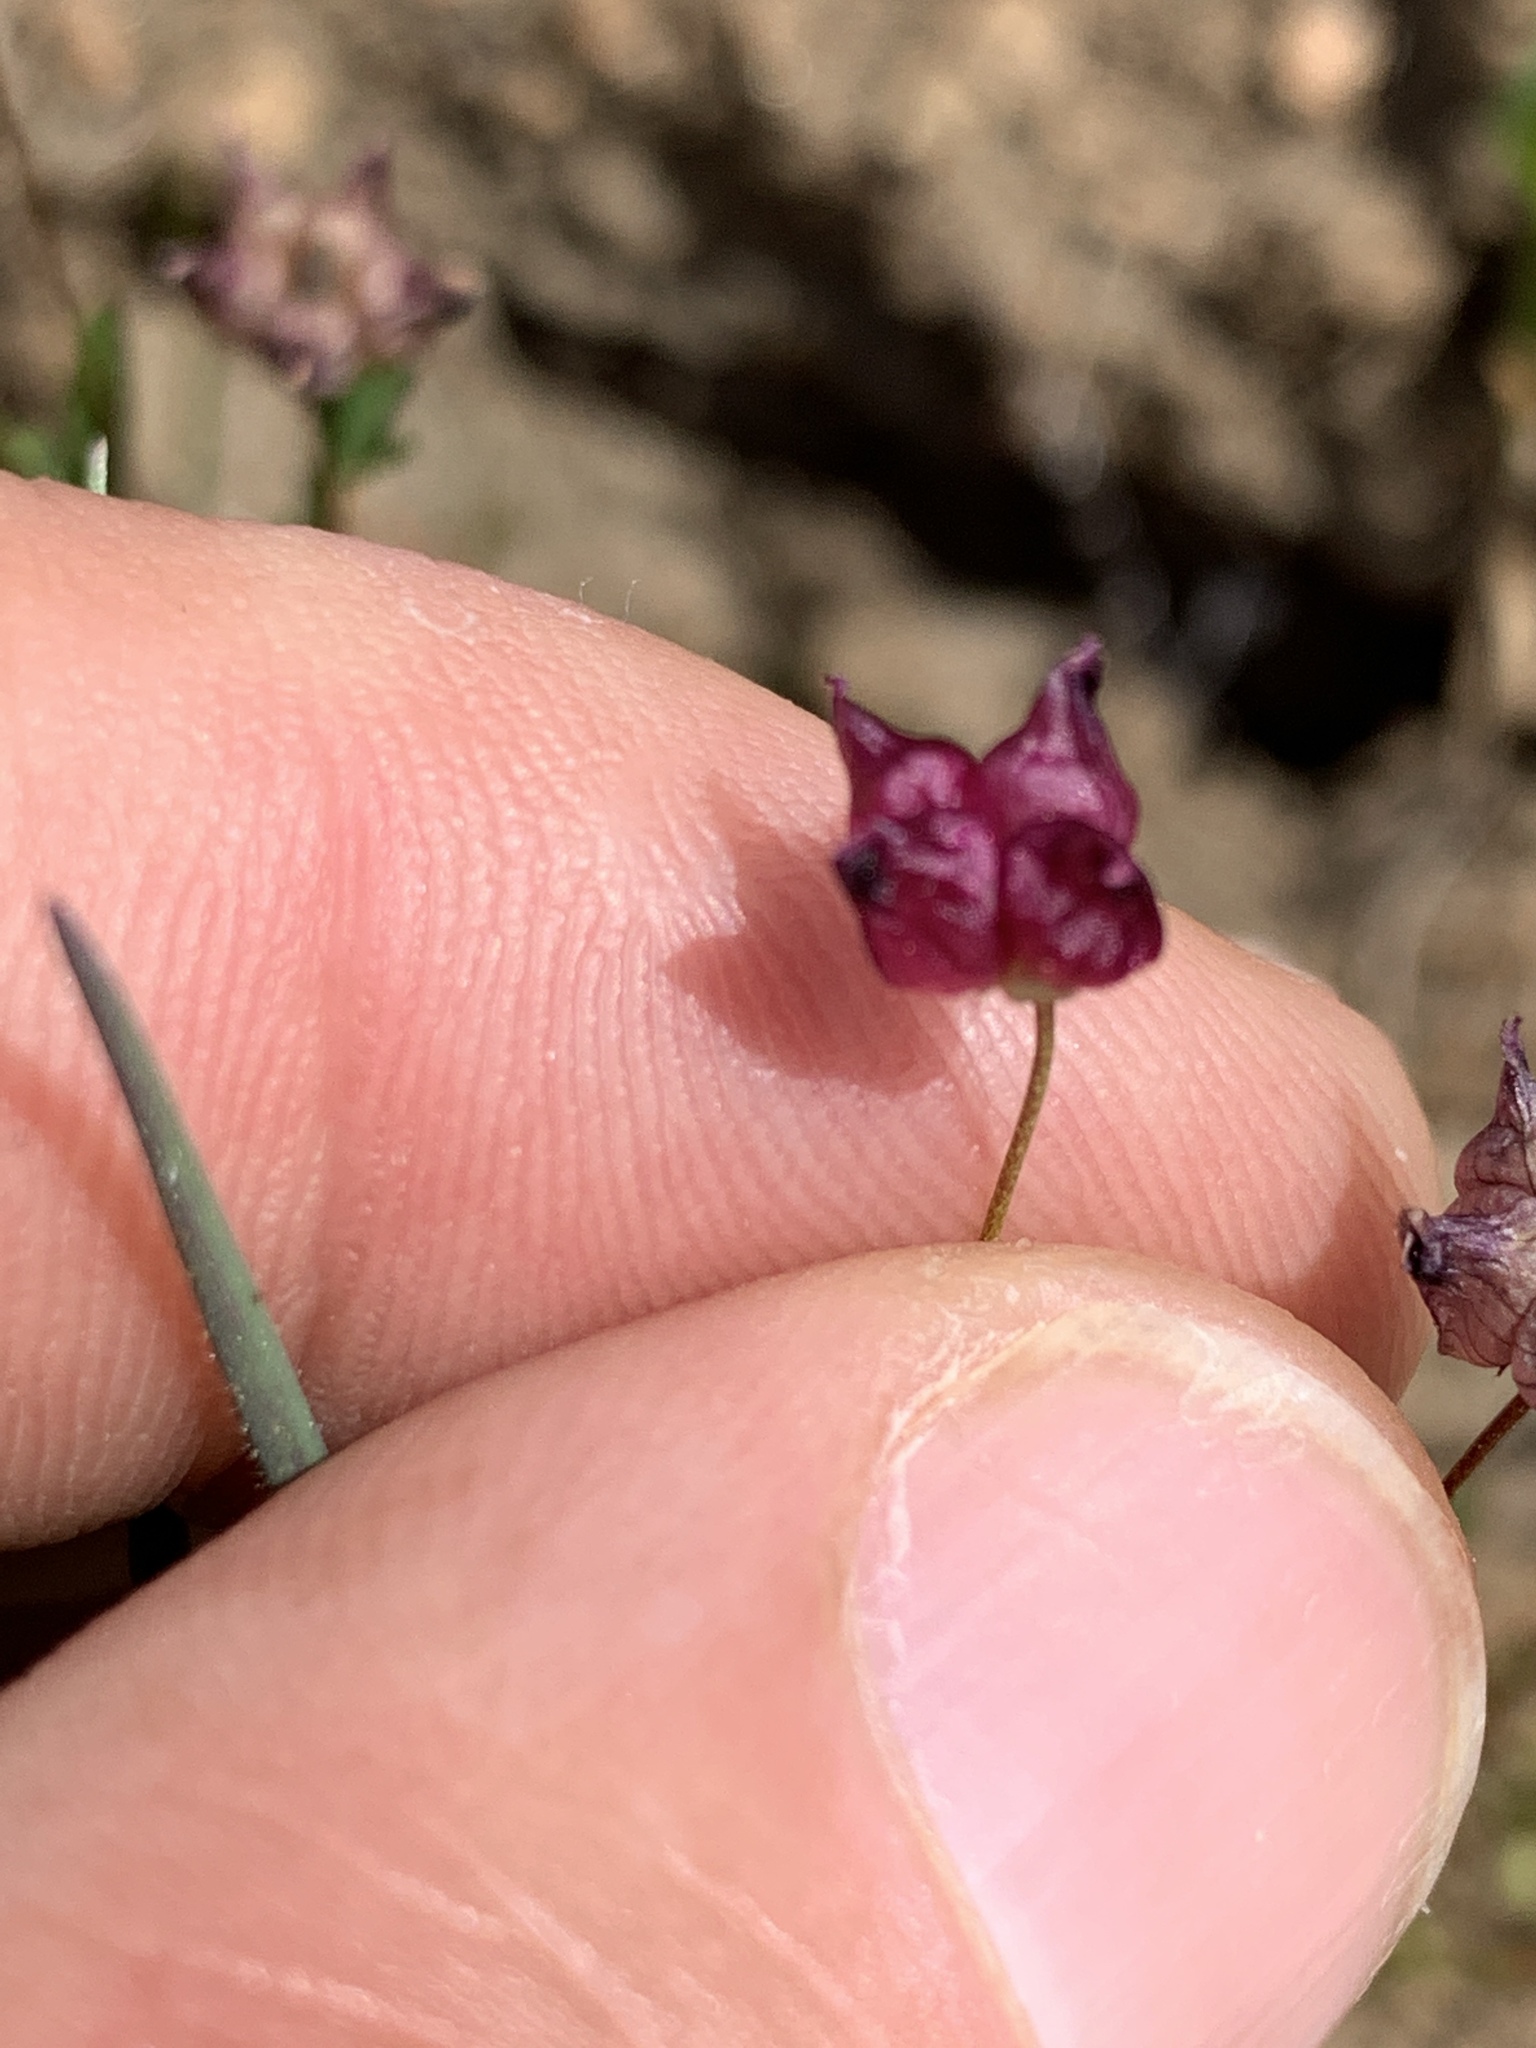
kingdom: Plantae
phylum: Tracheophyta
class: Magnoliopsida
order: Fabales
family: Fabaceae
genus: Trifolium
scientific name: Trifolium depauperatum
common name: Poverty clover
